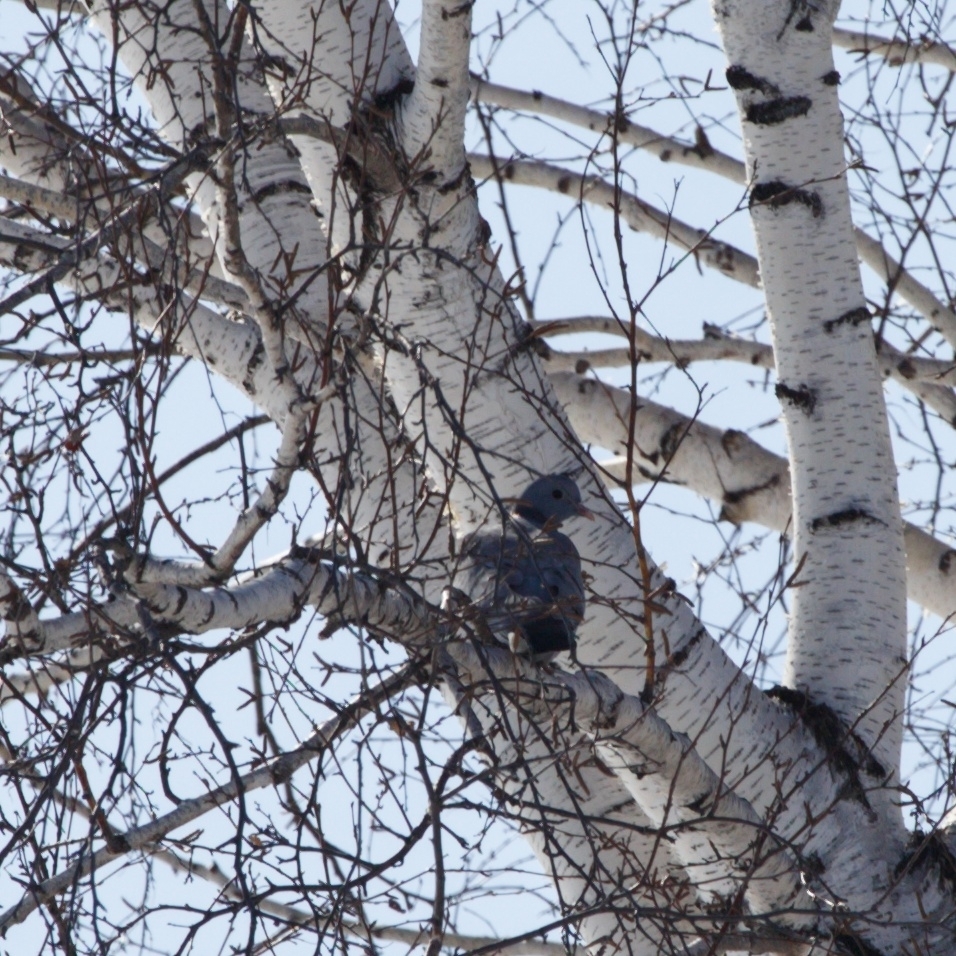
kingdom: Animalia
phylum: Chordata
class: Aves
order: Columbiformes
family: Columbidae
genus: Columba
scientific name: Columba oenas
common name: Stock dove
